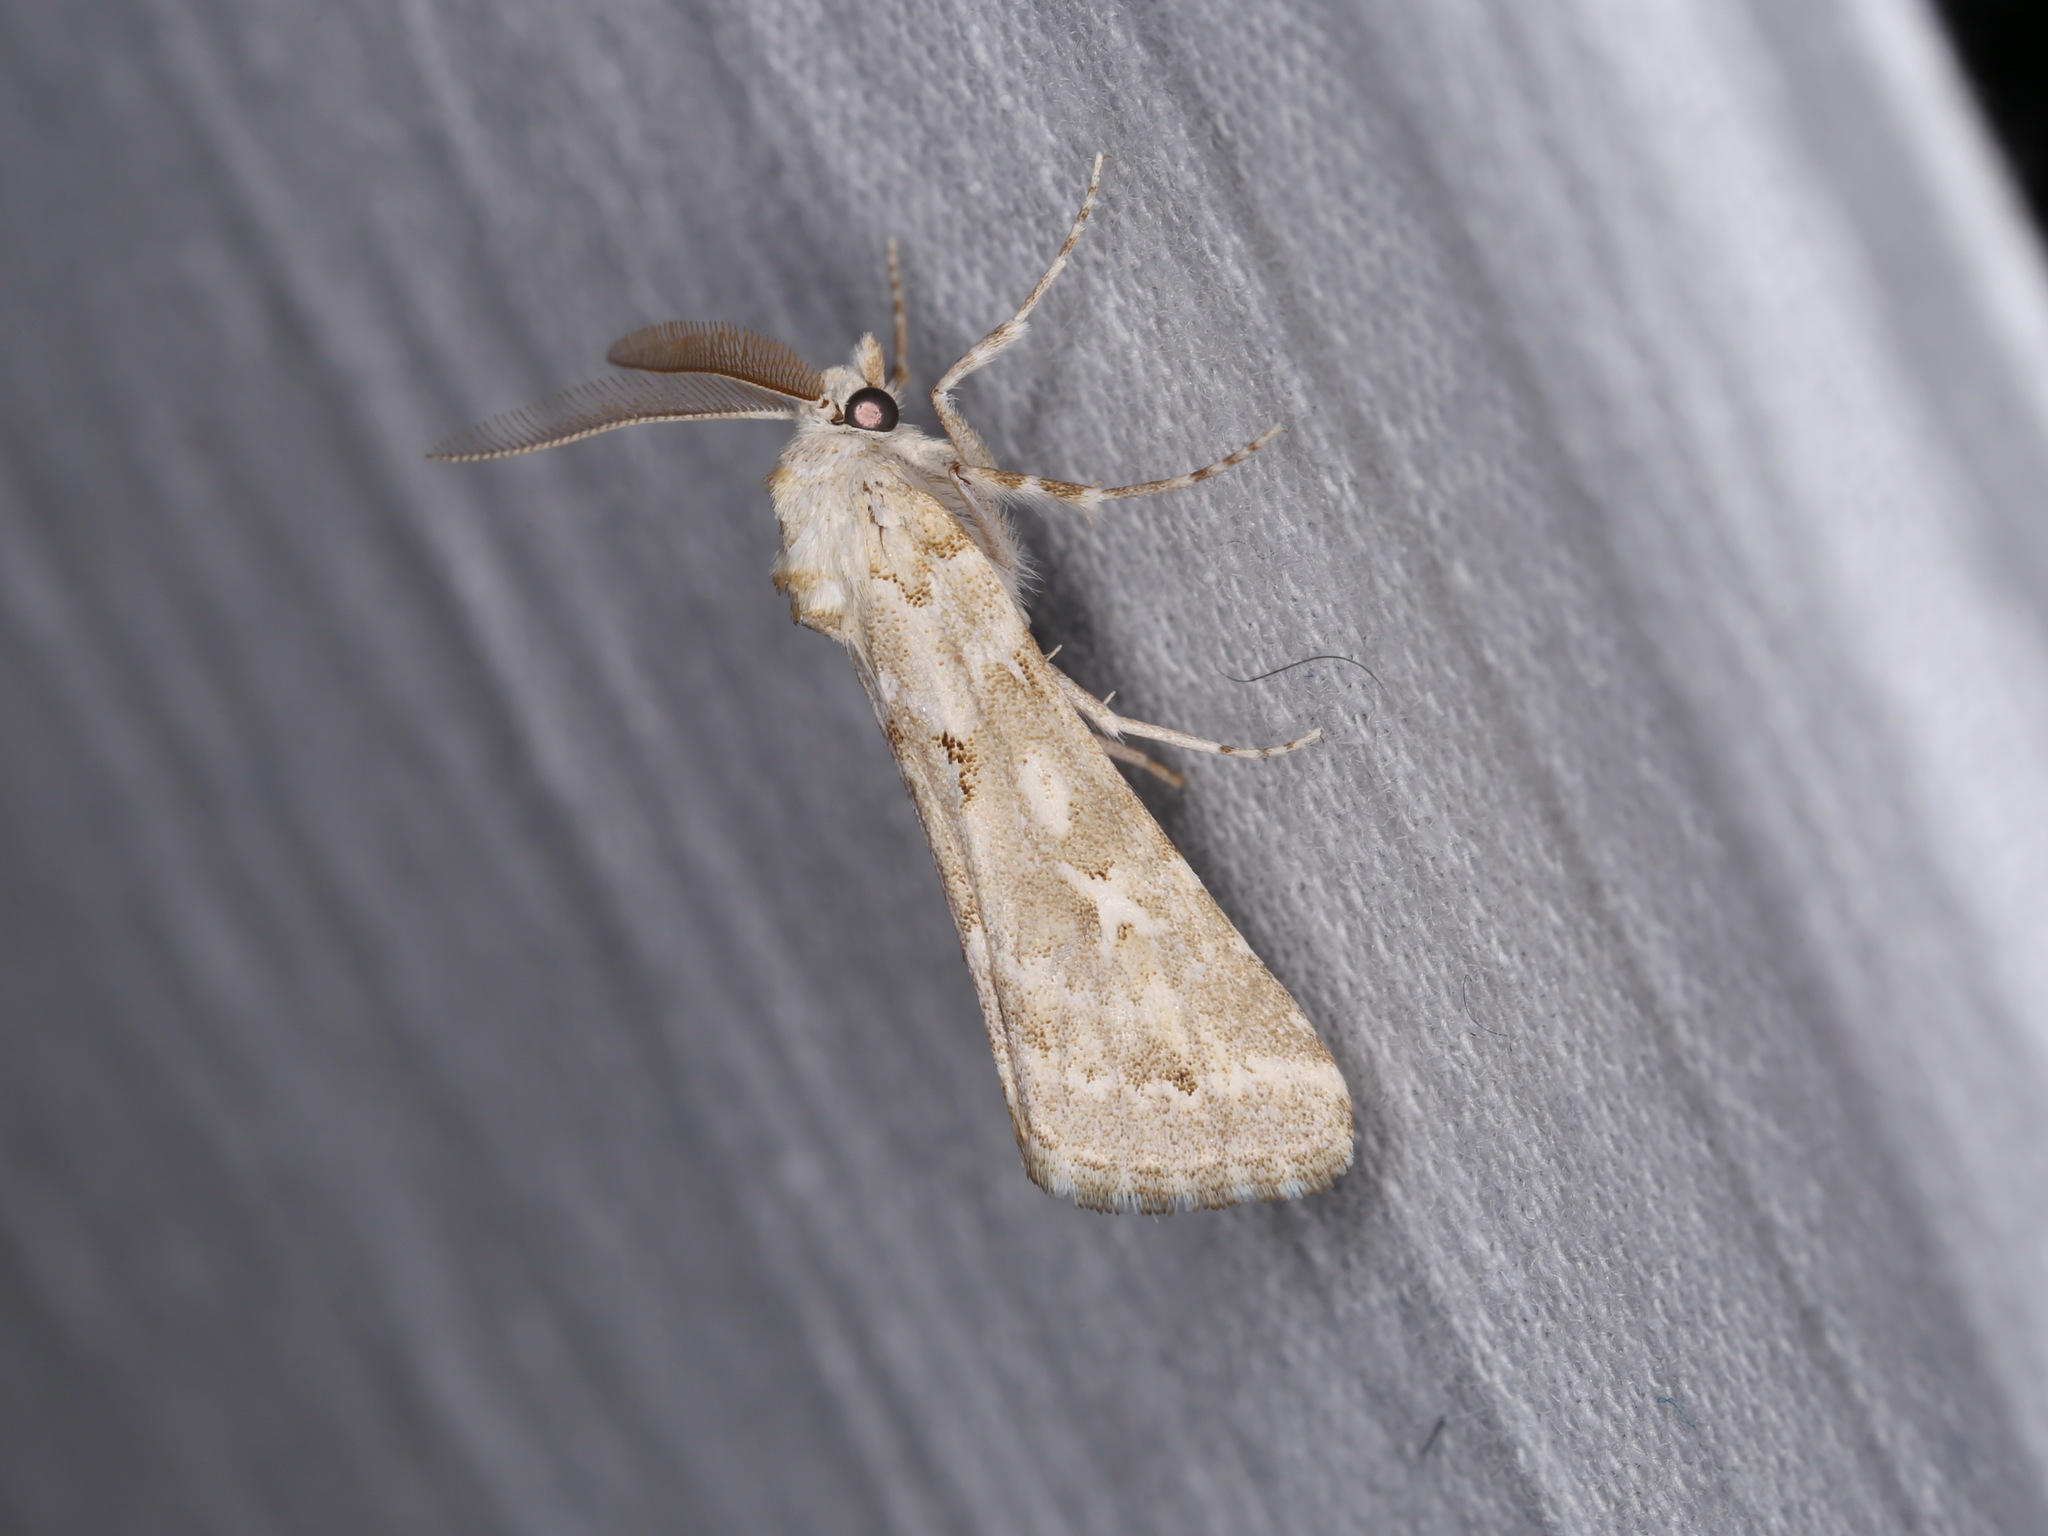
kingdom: Animalia
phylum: Arthropoda
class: Insecta
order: Lepidoptera
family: Noctuidae
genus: Eremochroa
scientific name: Eremochroa alphitias
